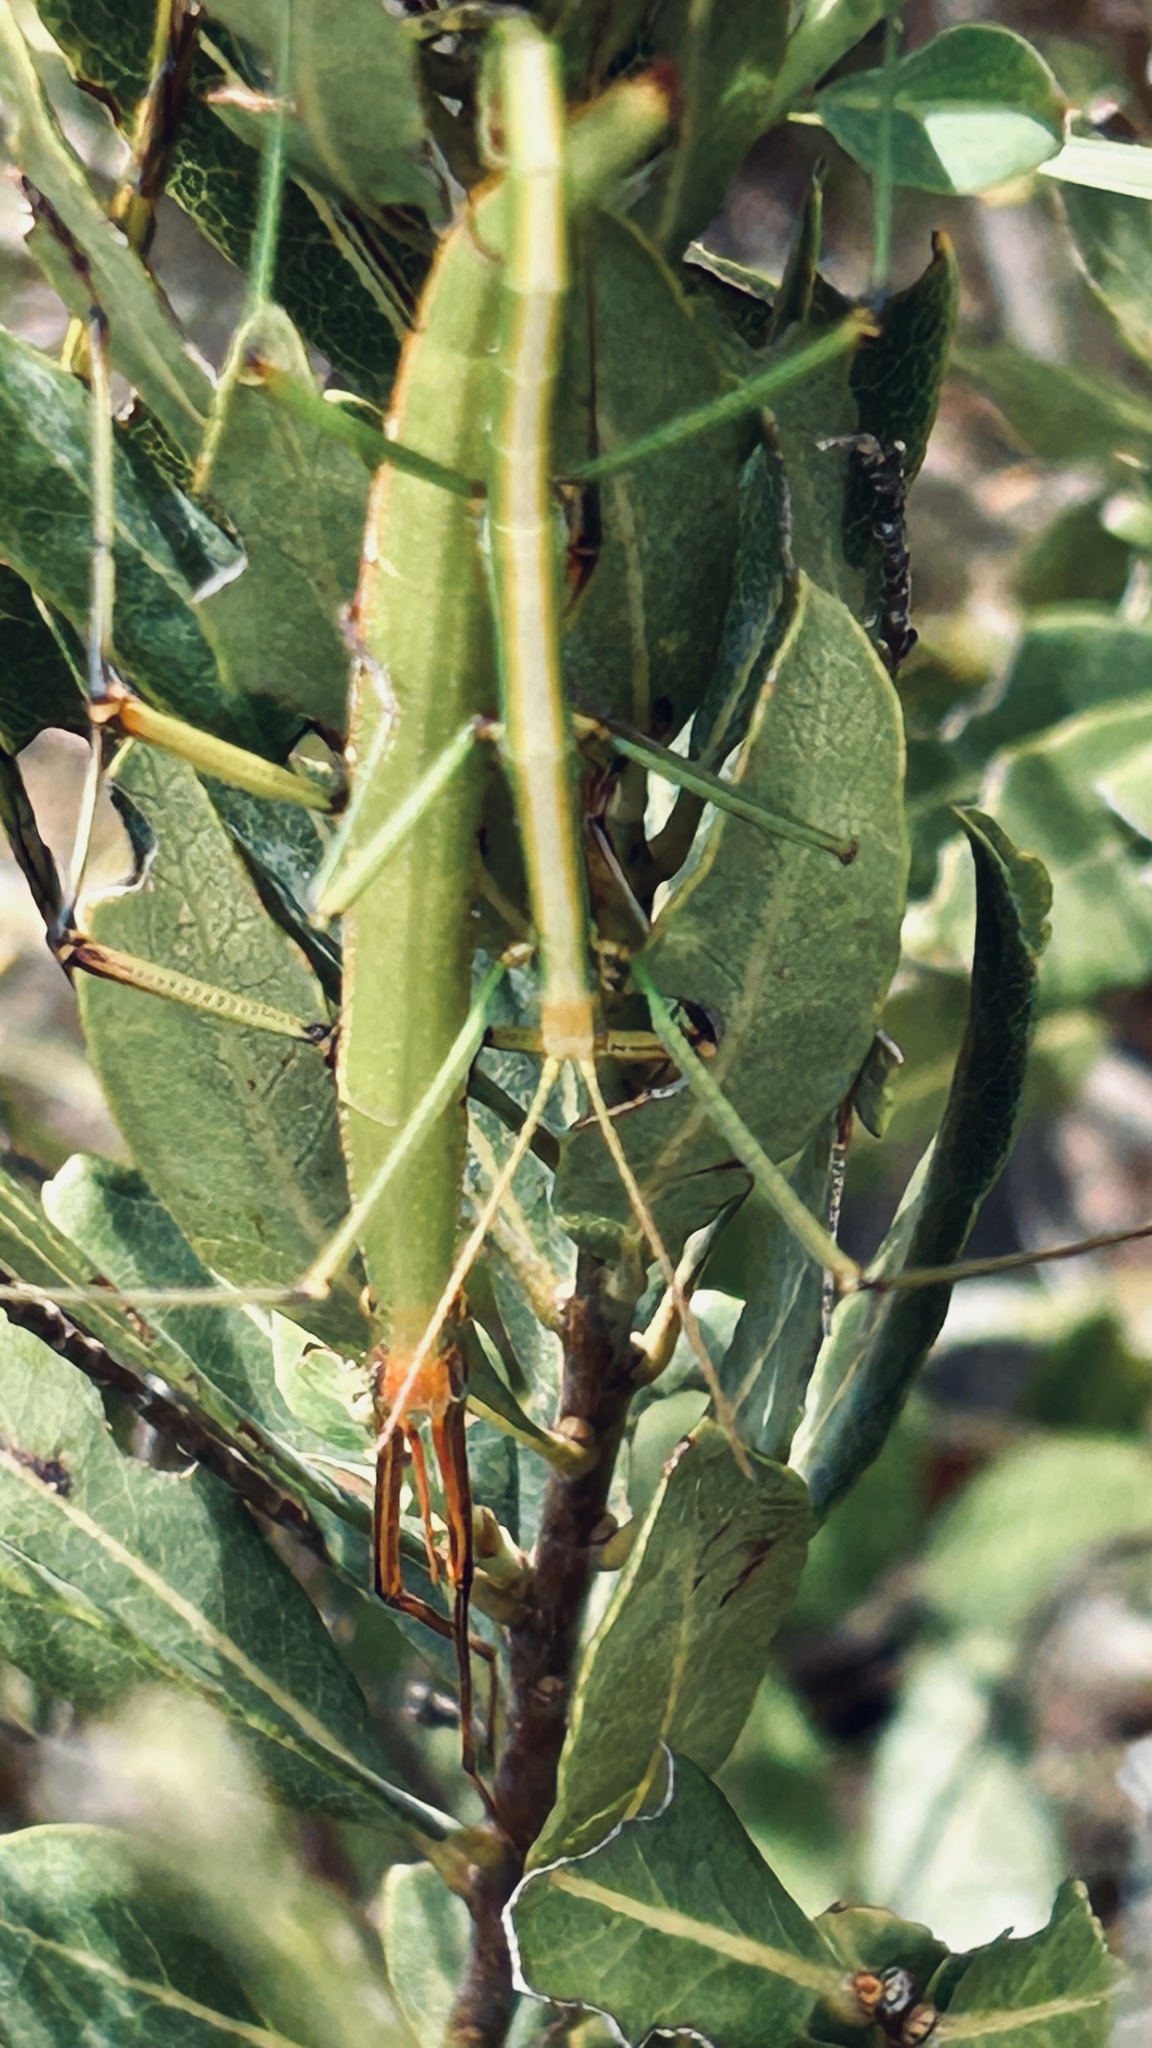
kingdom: Animalia
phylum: Arthropoda
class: Insecta
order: Phasmida
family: Bacillidae
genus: Macynia
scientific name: Macynia labiata
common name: Thunberg's stick insect
